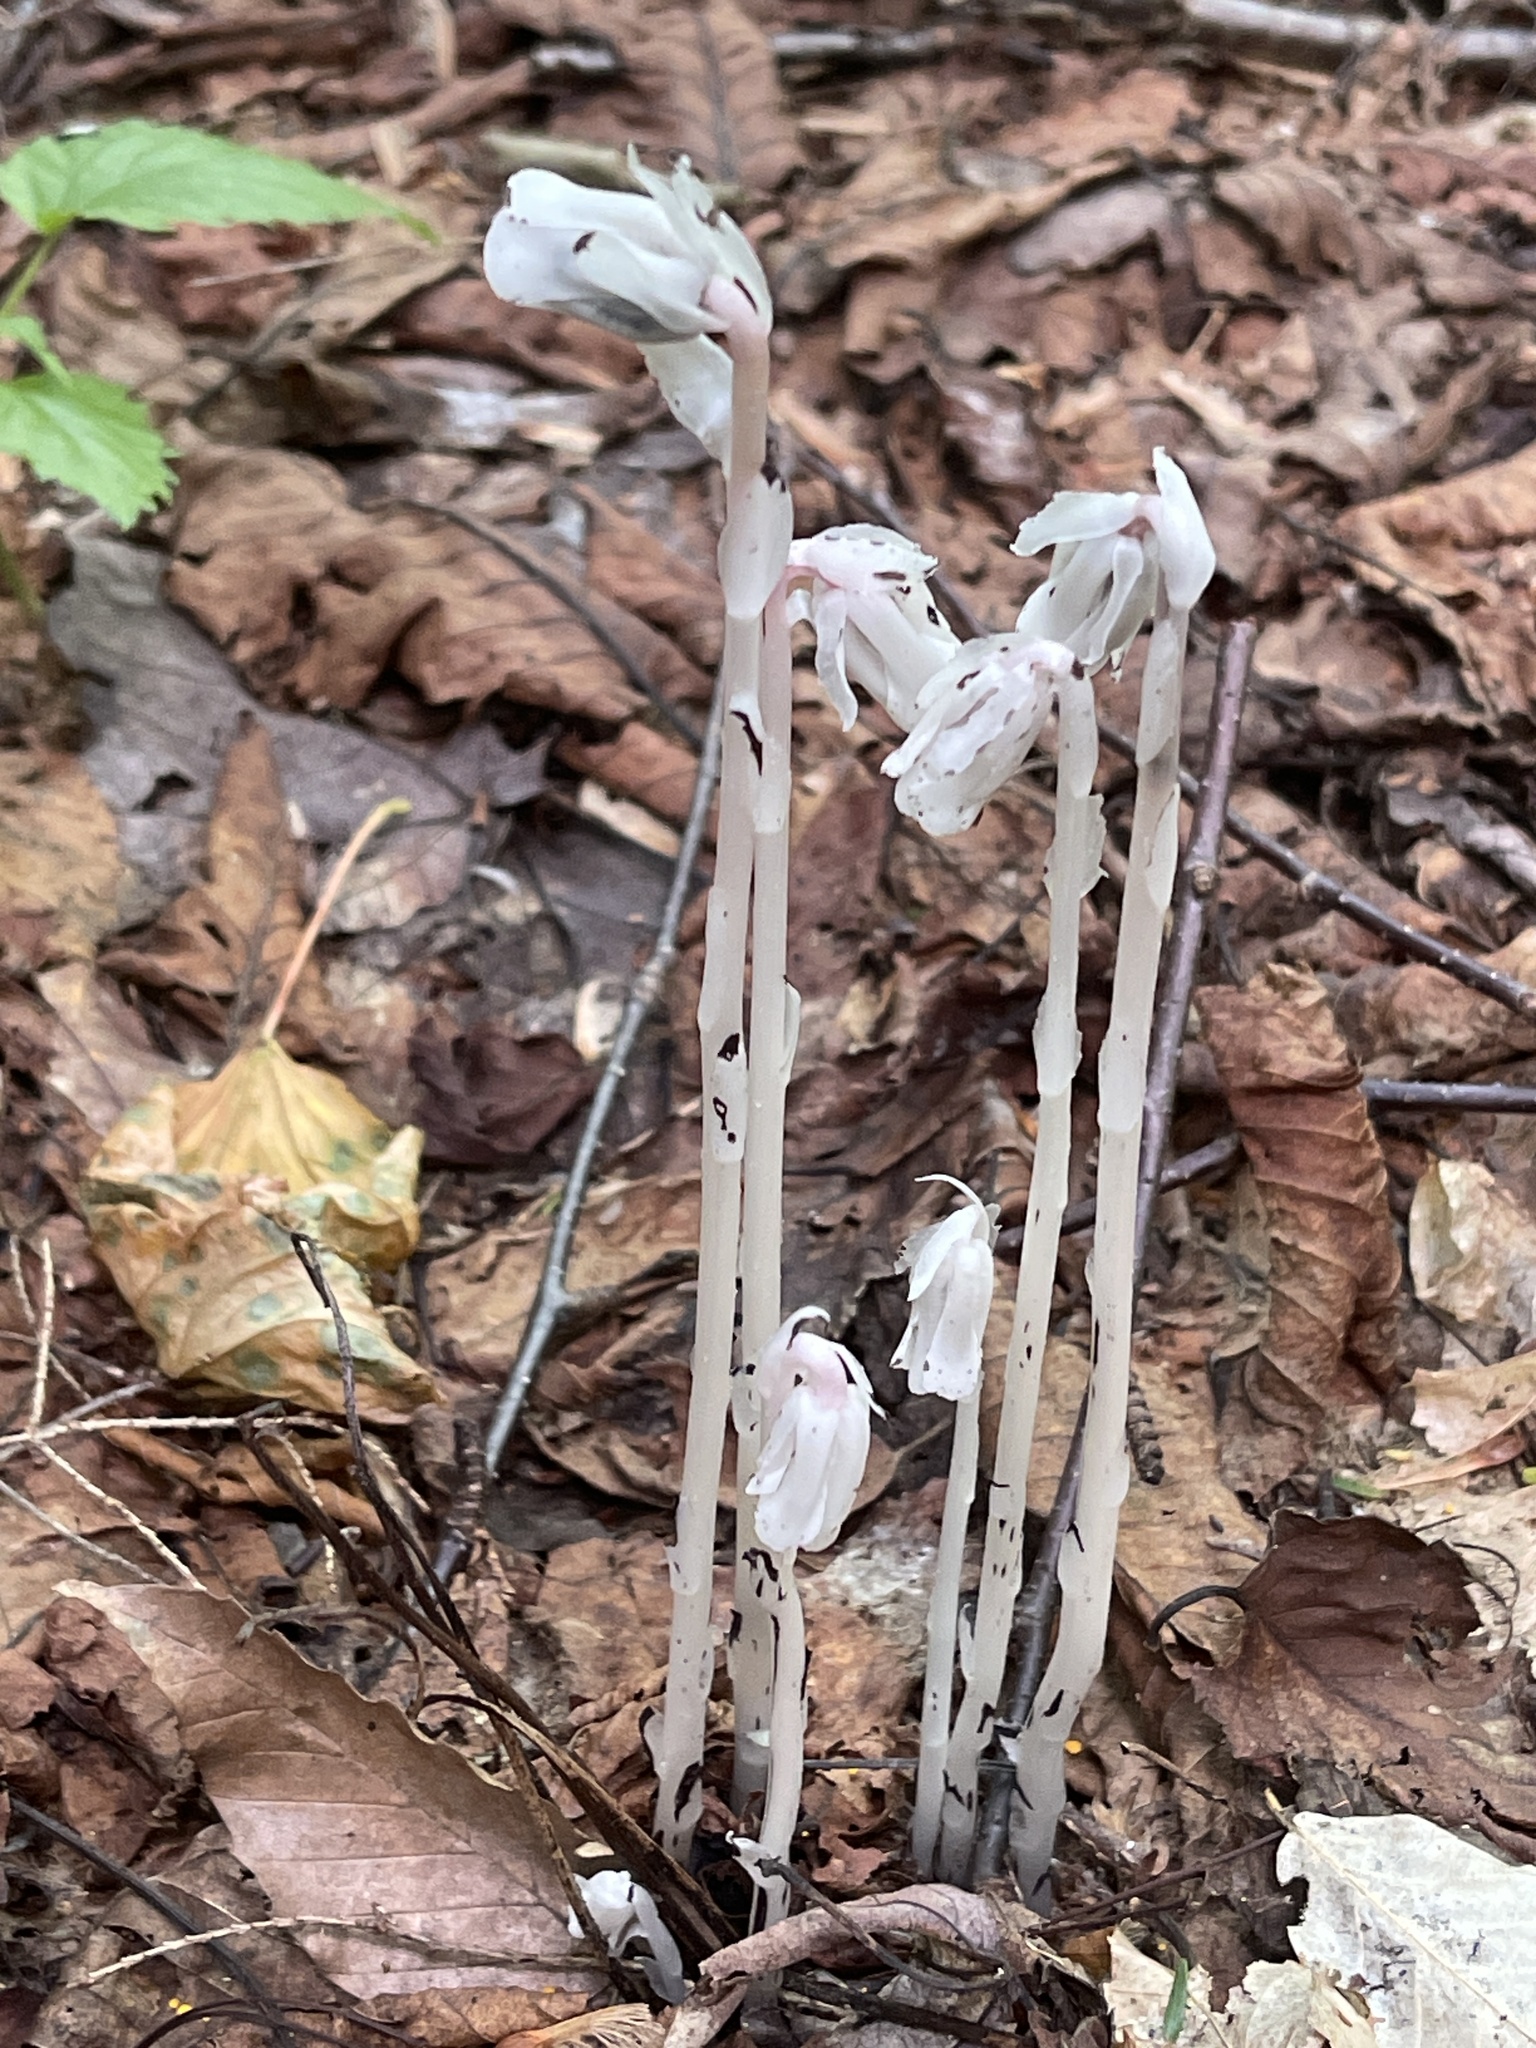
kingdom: Plantae
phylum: Tracheophyta
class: Magnoliopsida
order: Ericales
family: Ericaceae
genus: Monotropa
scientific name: Monotropa uniflora
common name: Convulsion root
